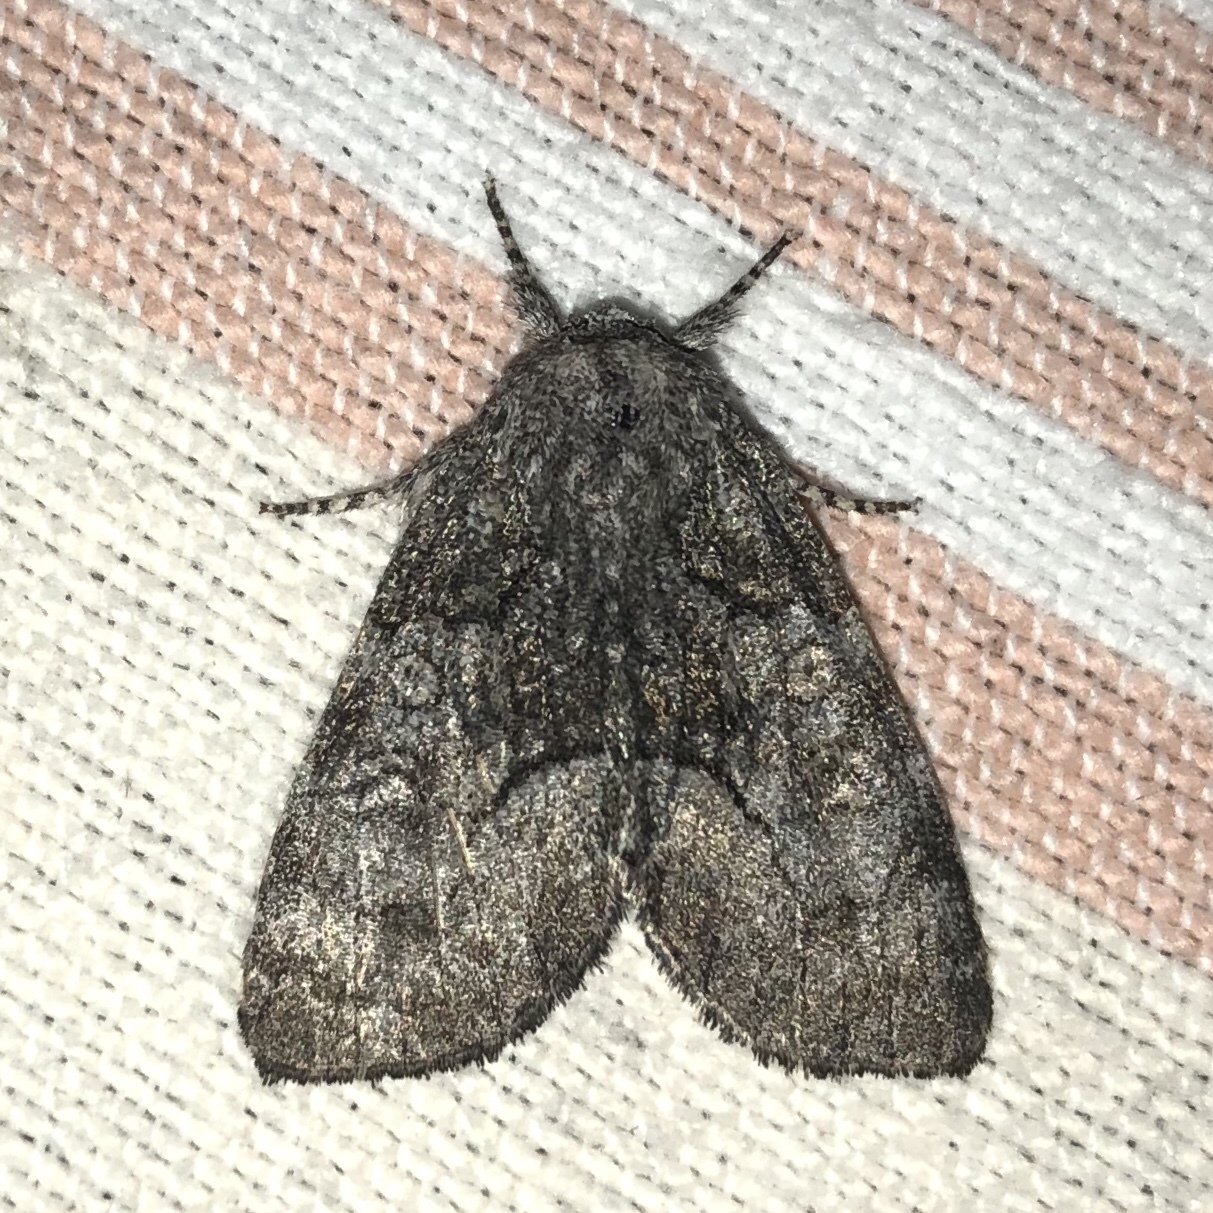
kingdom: Animalia
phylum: Arthropoda
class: Insecta
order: Lepidoptera
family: Noctuidae
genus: Raphia
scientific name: Raphia frater
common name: Brother
